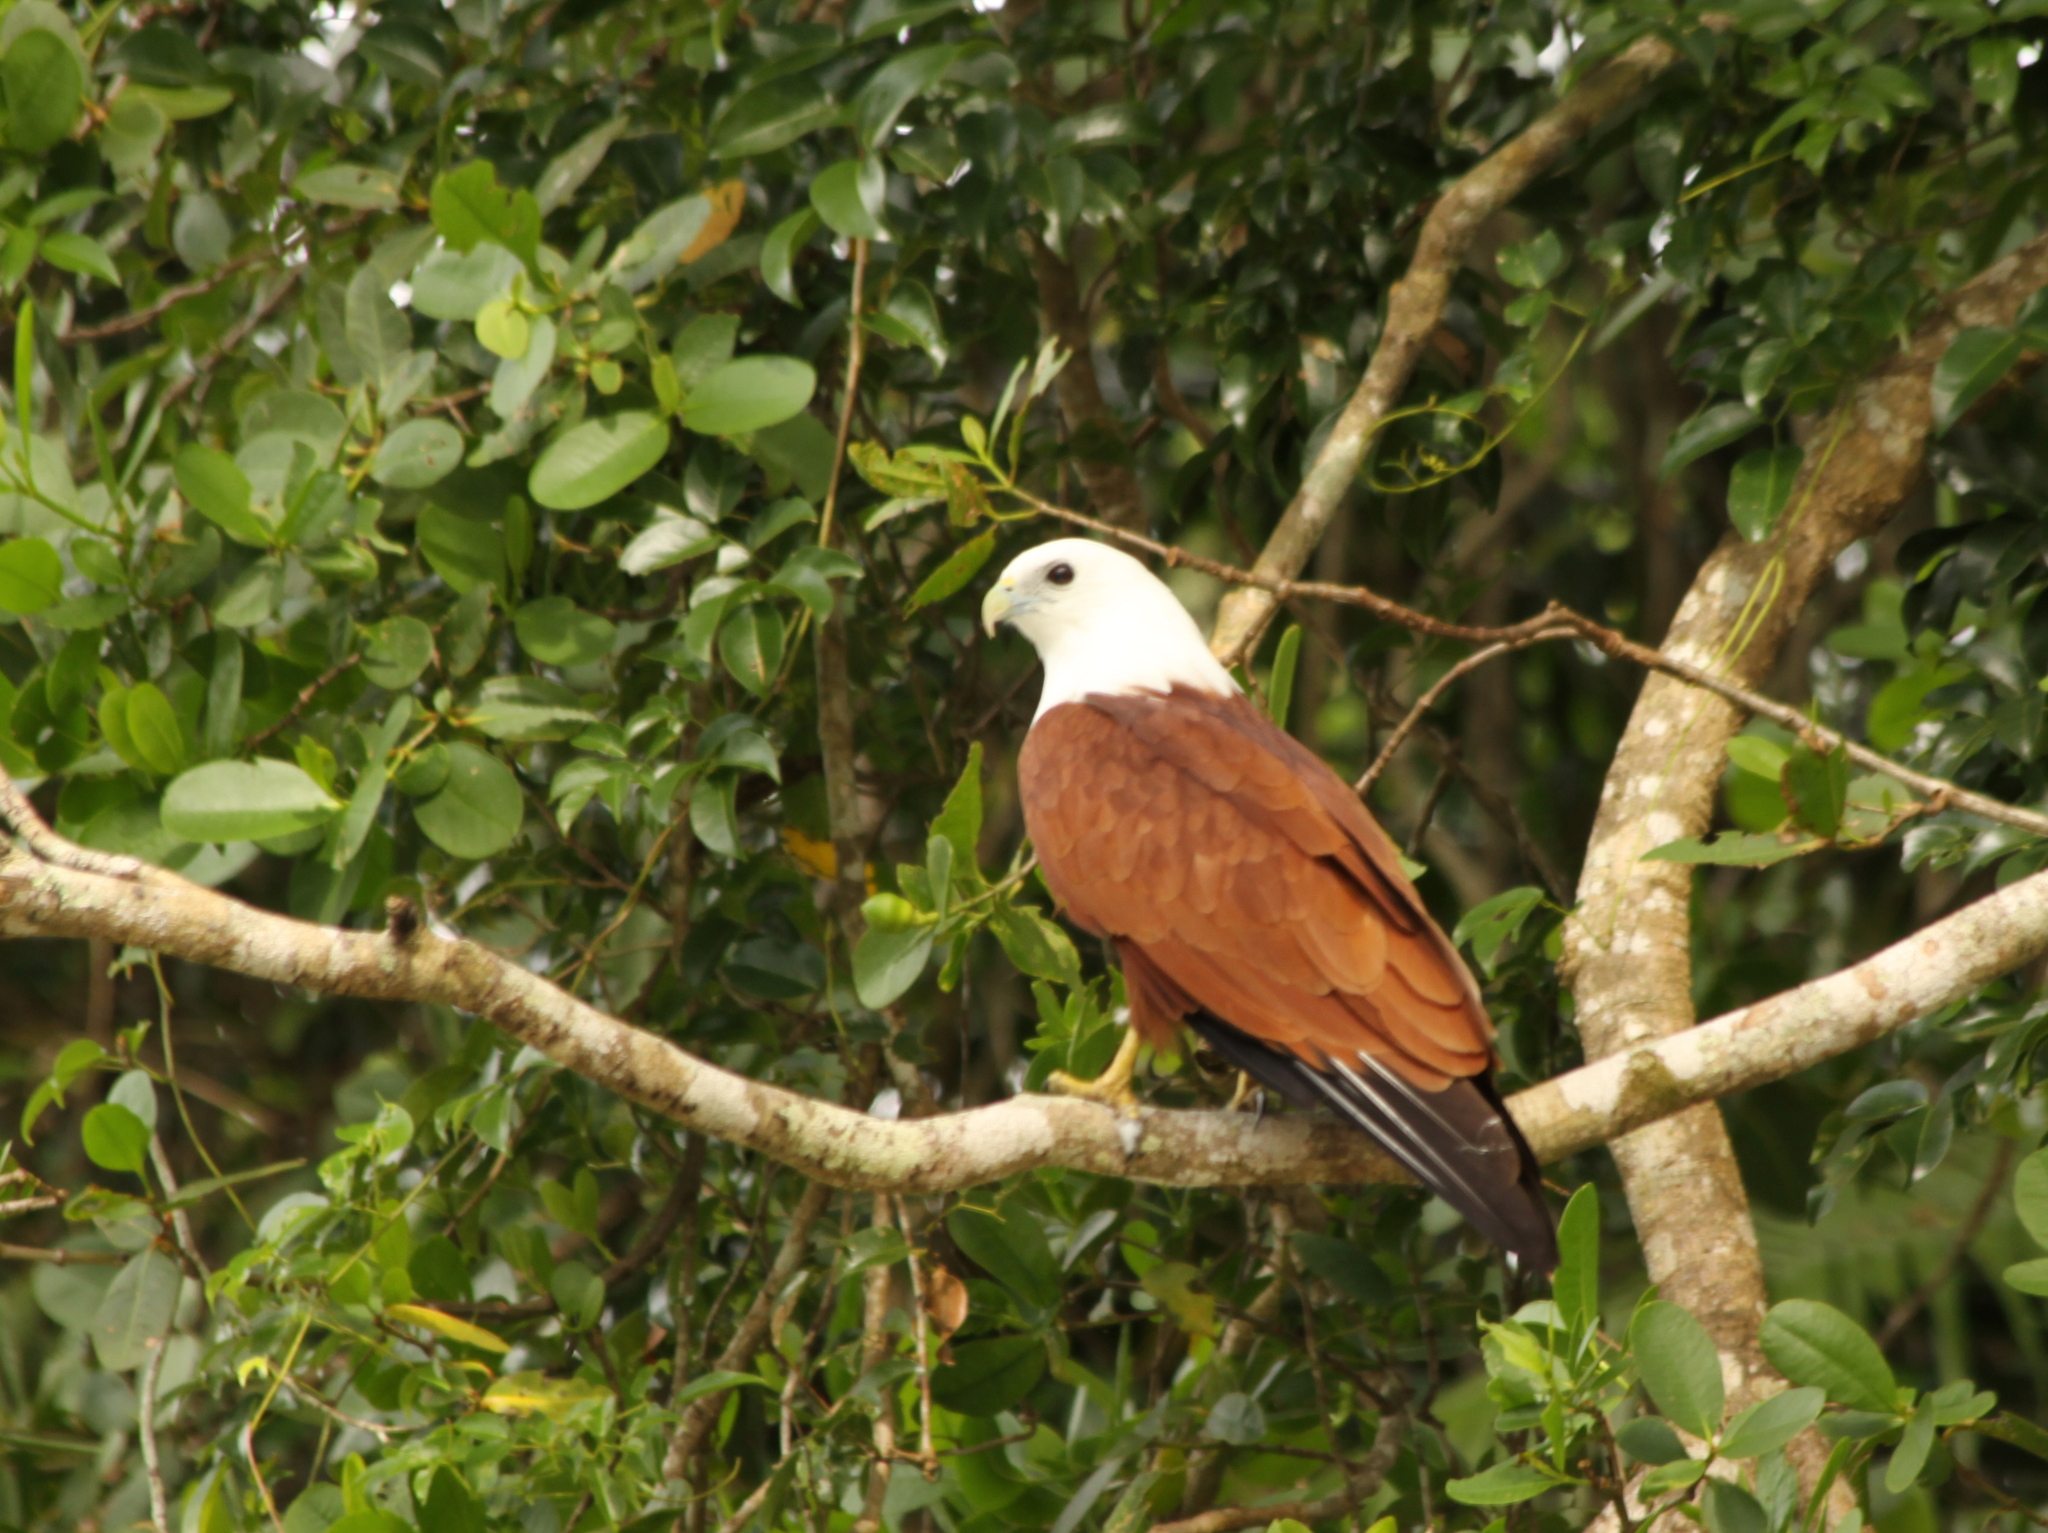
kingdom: Animalia
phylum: Chordata
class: Aves
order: Accipitriformes
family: Accipitridae
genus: Haliastur
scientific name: Haliastur indus
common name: Brahminy kite
